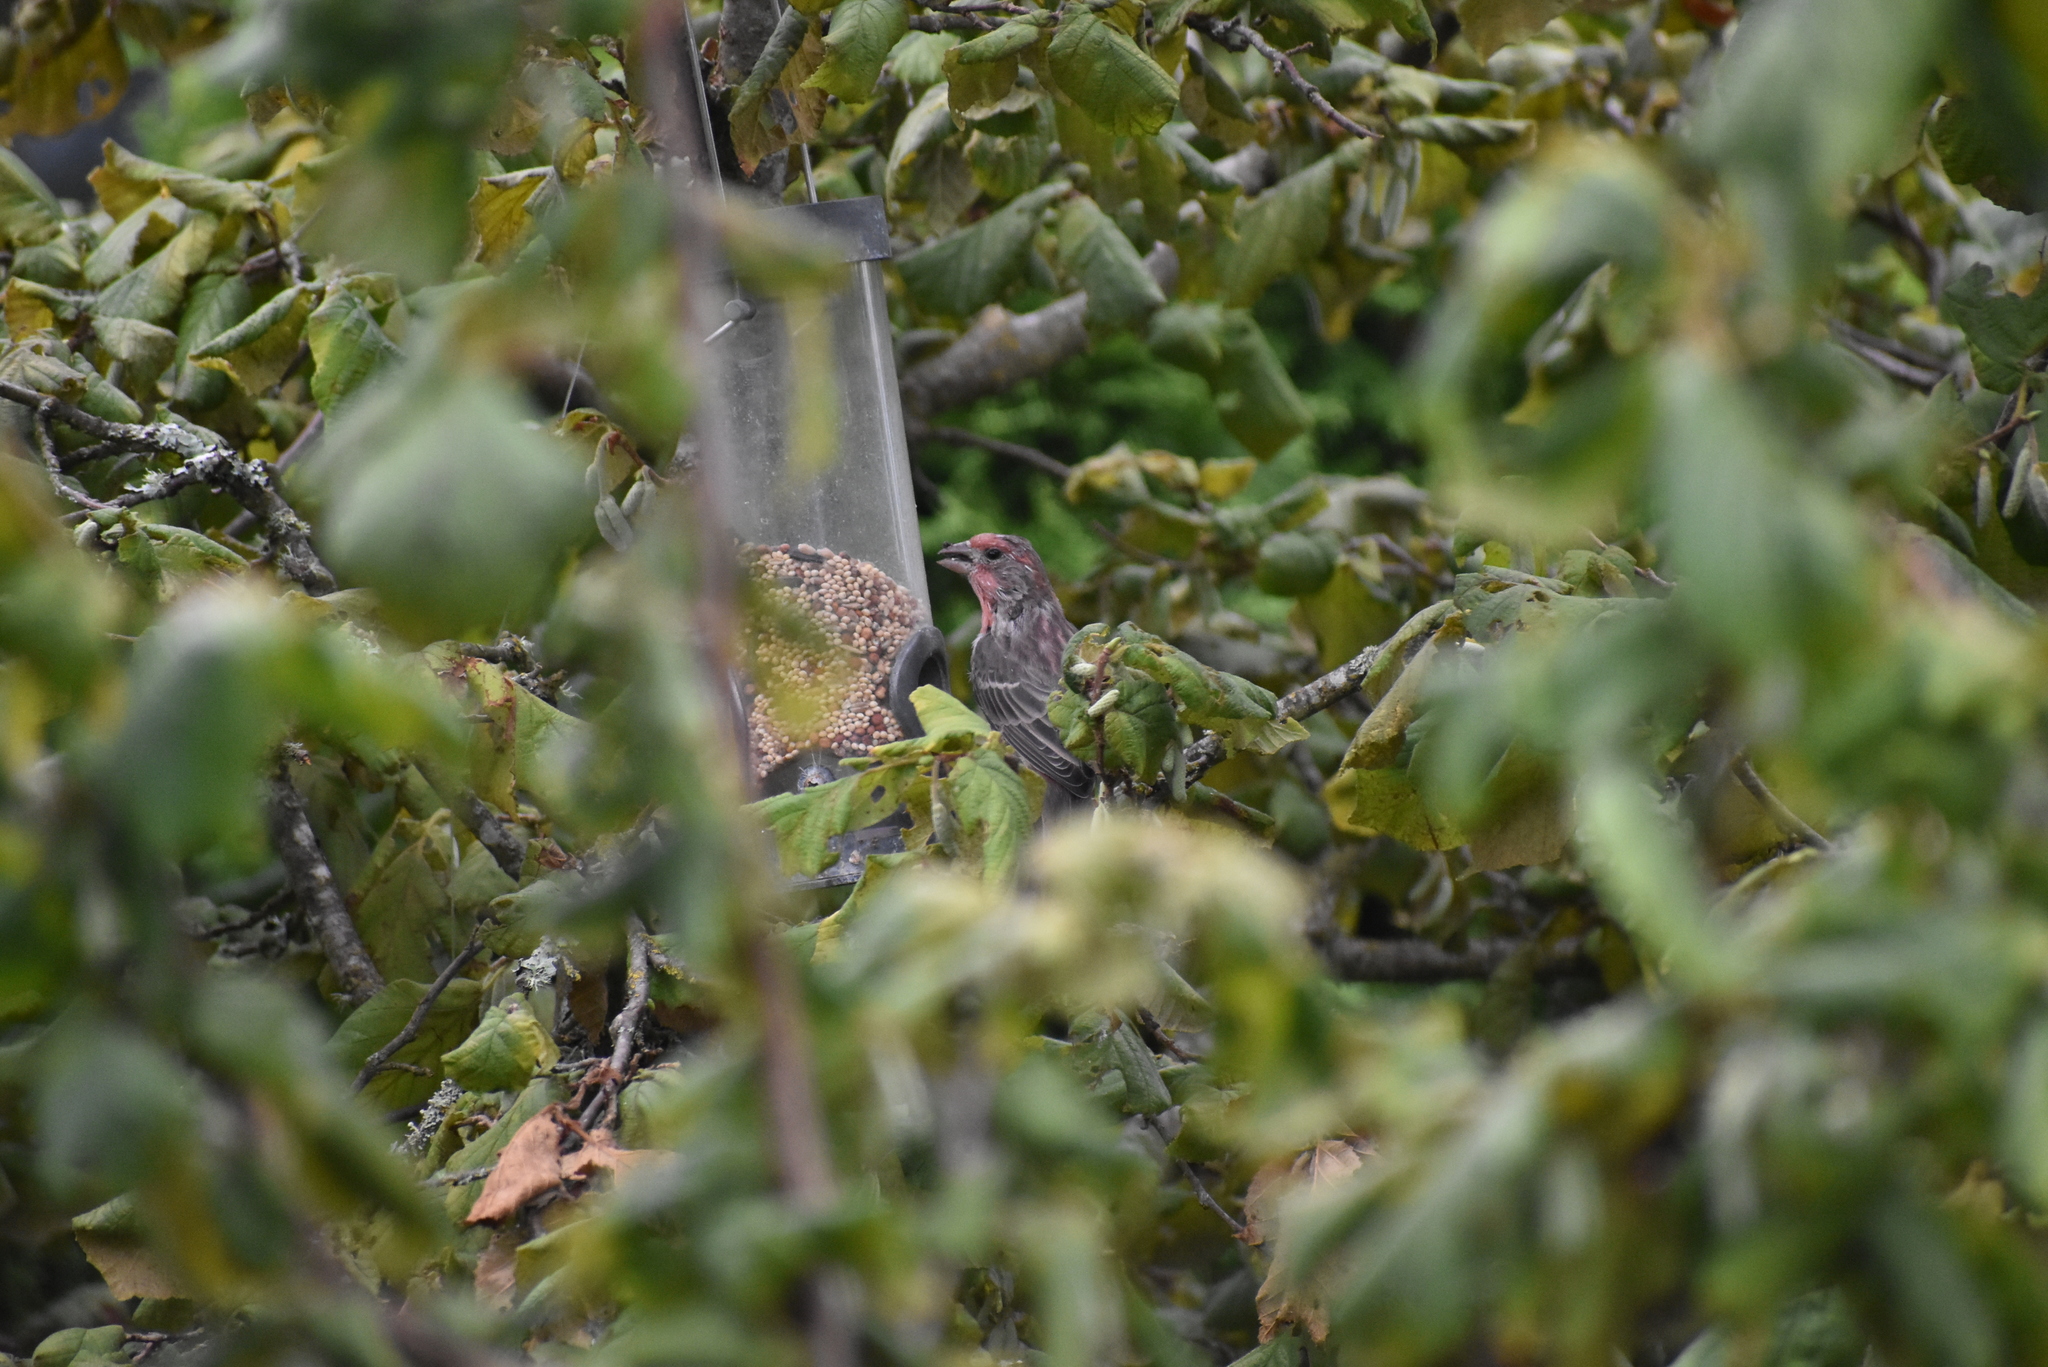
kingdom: Animalia
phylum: Chordata
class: Aves
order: Passeriformes
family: Fringillidae
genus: Haemorhous
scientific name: Haemorhous mexicanus
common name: House finch
